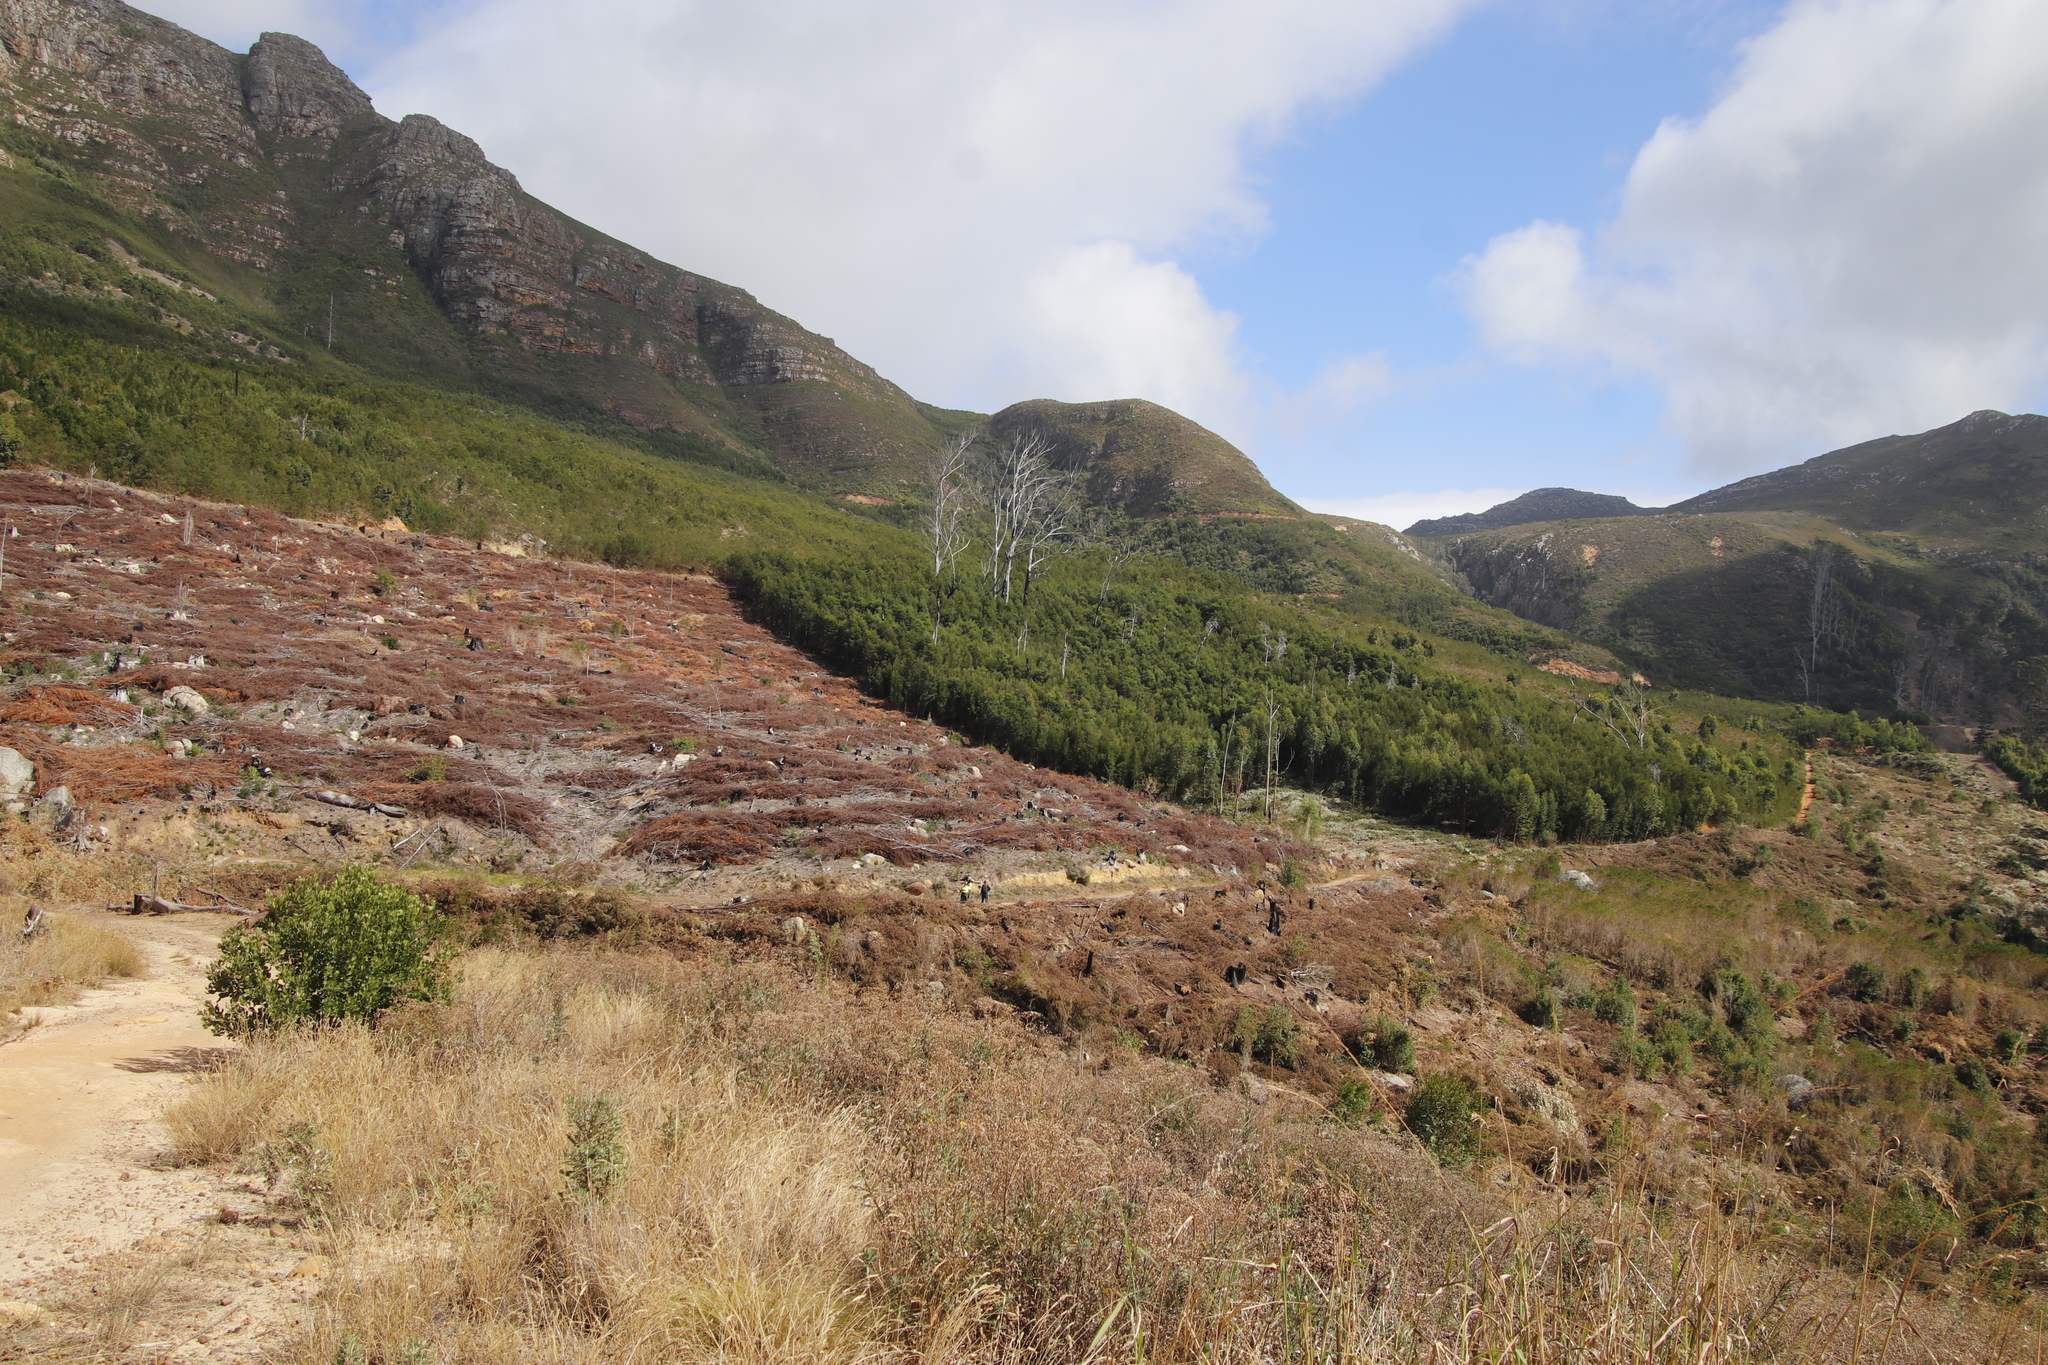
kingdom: Plantae
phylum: Tracheophyta
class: Magnoliopsida
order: Asterales
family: Asteraceae
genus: Senecio
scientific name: Senecio pterophorus
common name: Shoddy ragwort
